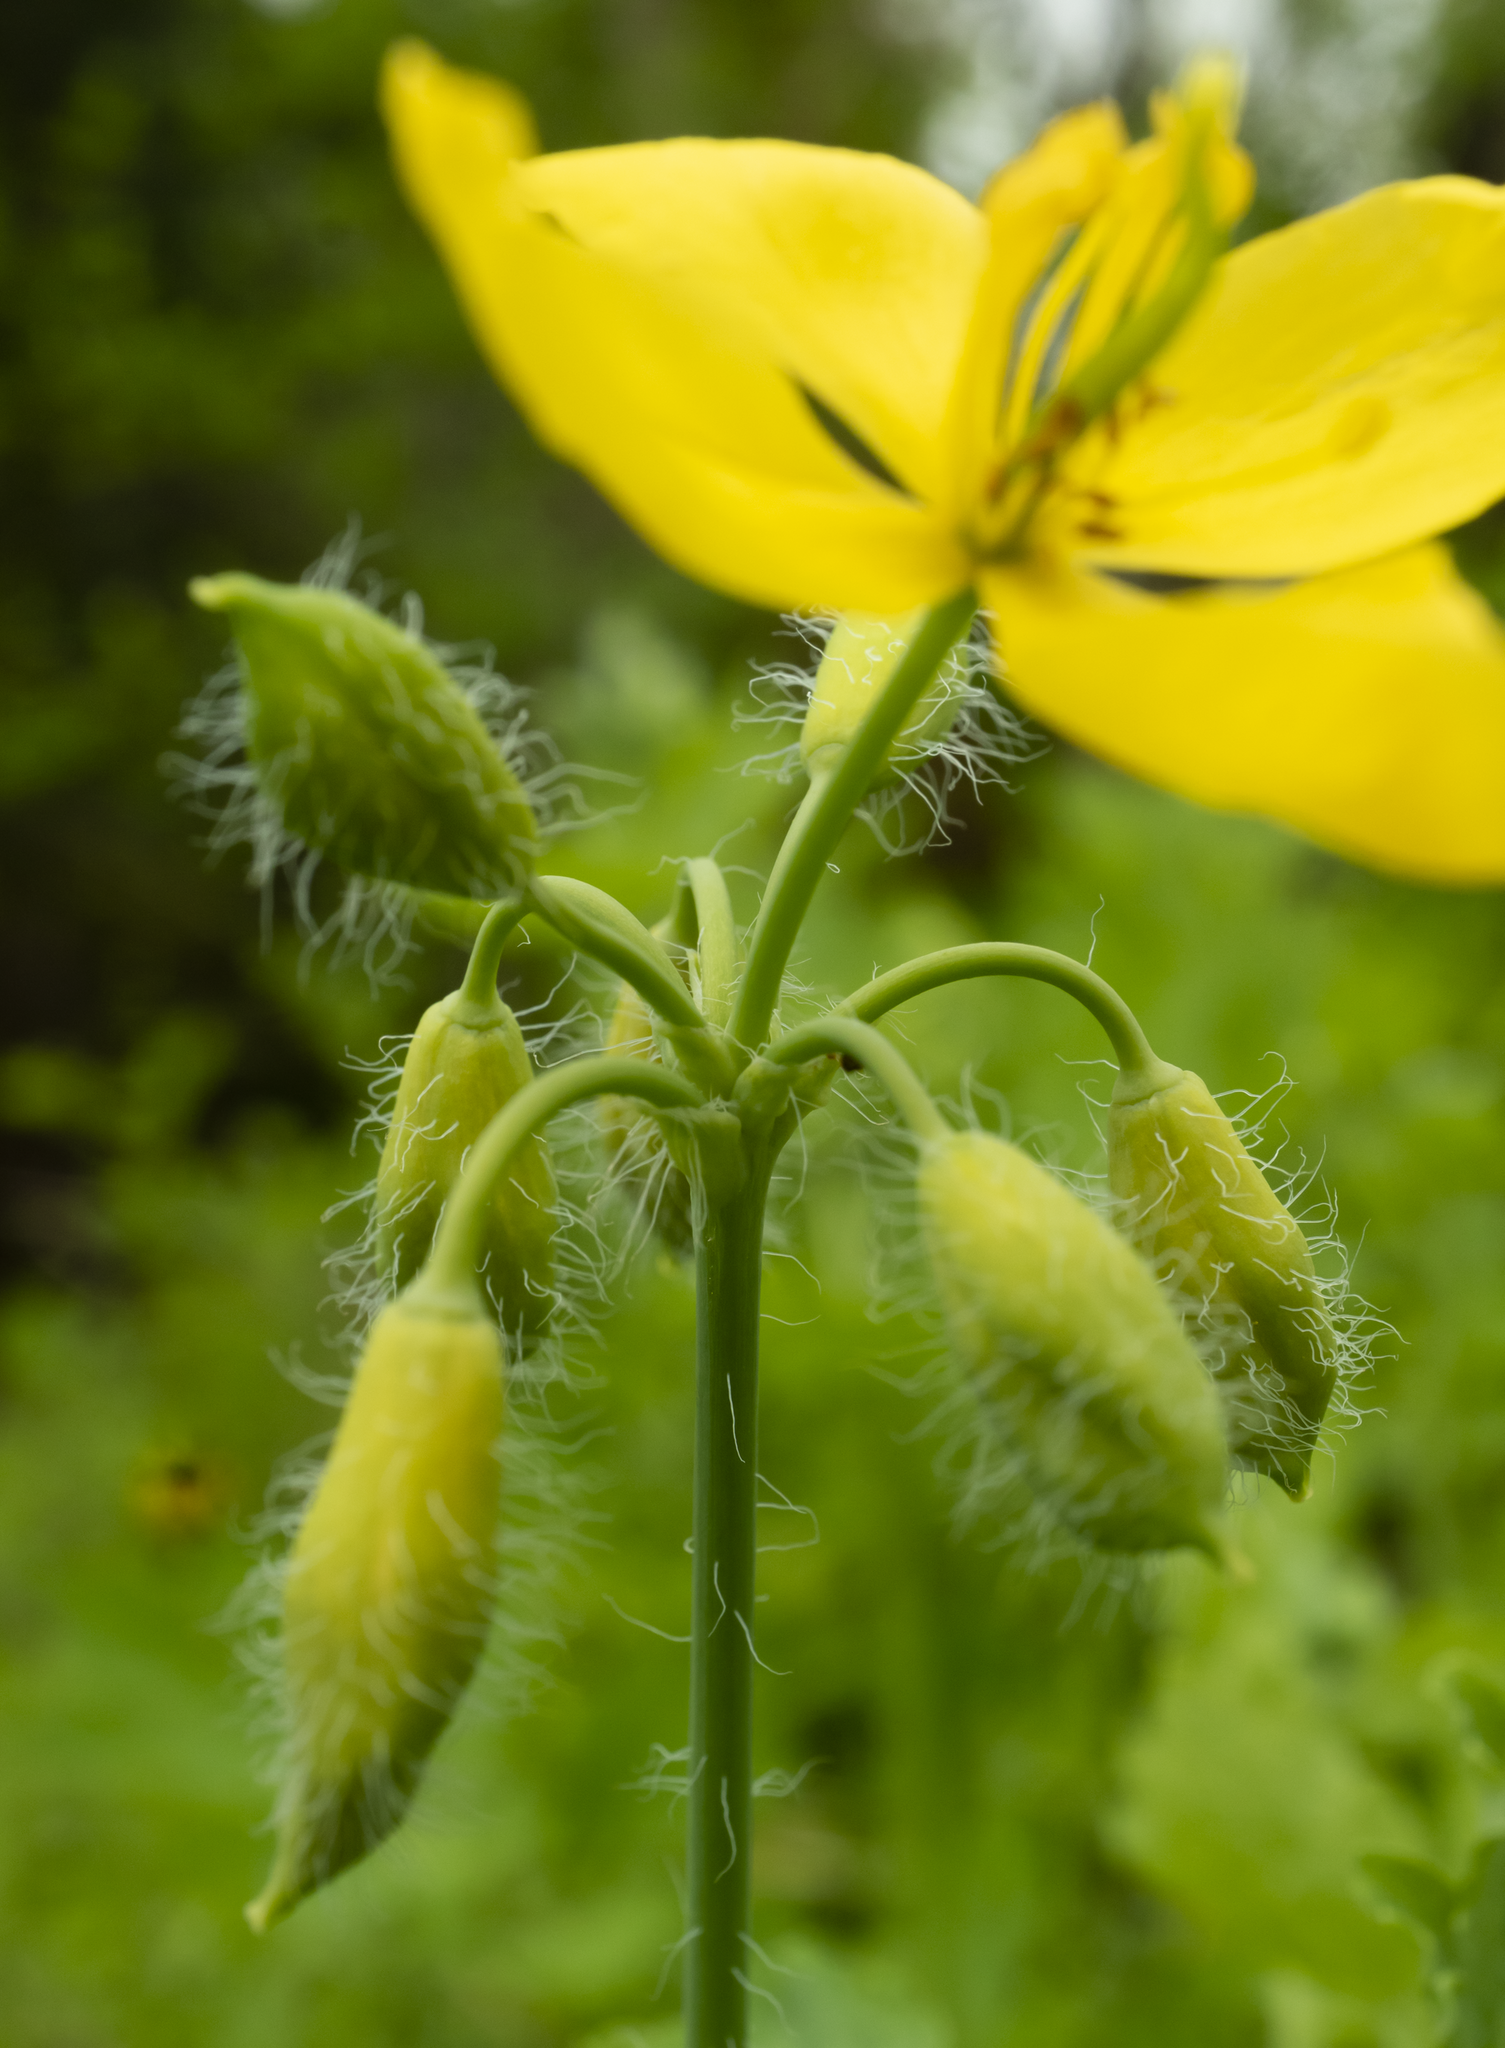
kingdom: Plantae
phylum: Tracheophyta
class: Magnoliopsida
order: Ranunculales
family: Papaveraceae
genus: Chelidonium
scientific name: Chelidonium majus
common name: Greater celandine
